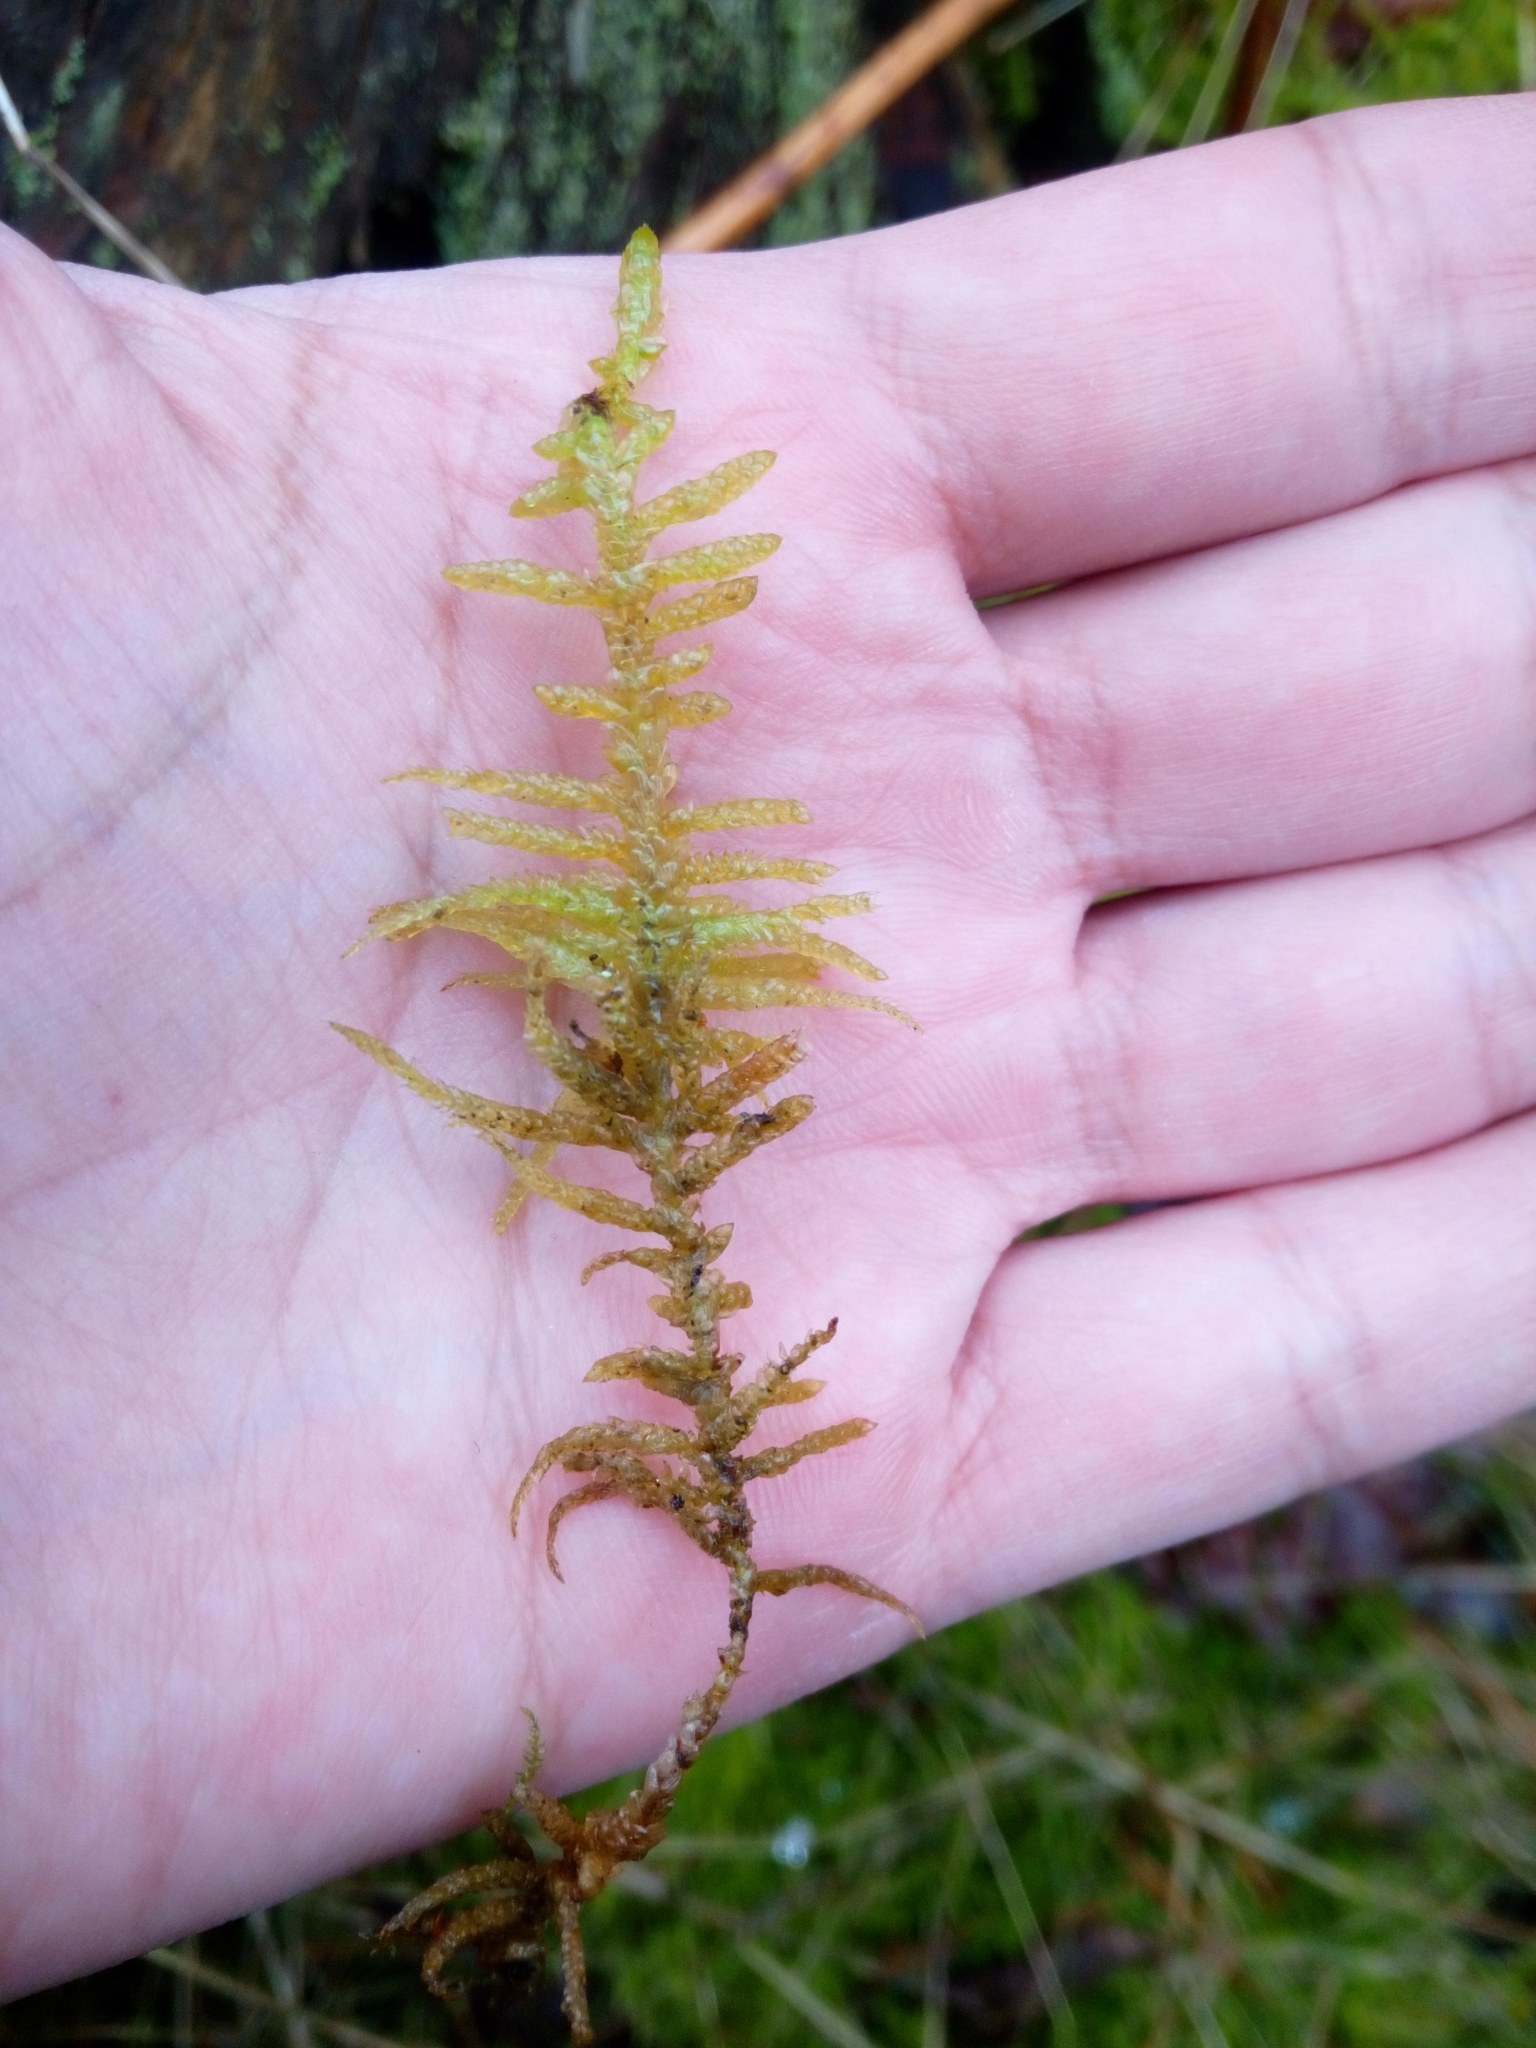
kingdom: Plantae
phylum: Bryophyta
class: Bryopsida
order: Hypnales
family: Brachytheciaceae
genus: Pseudoscleropodium
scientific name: Pseudoscleropodium purum
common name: Neat feather-moss
